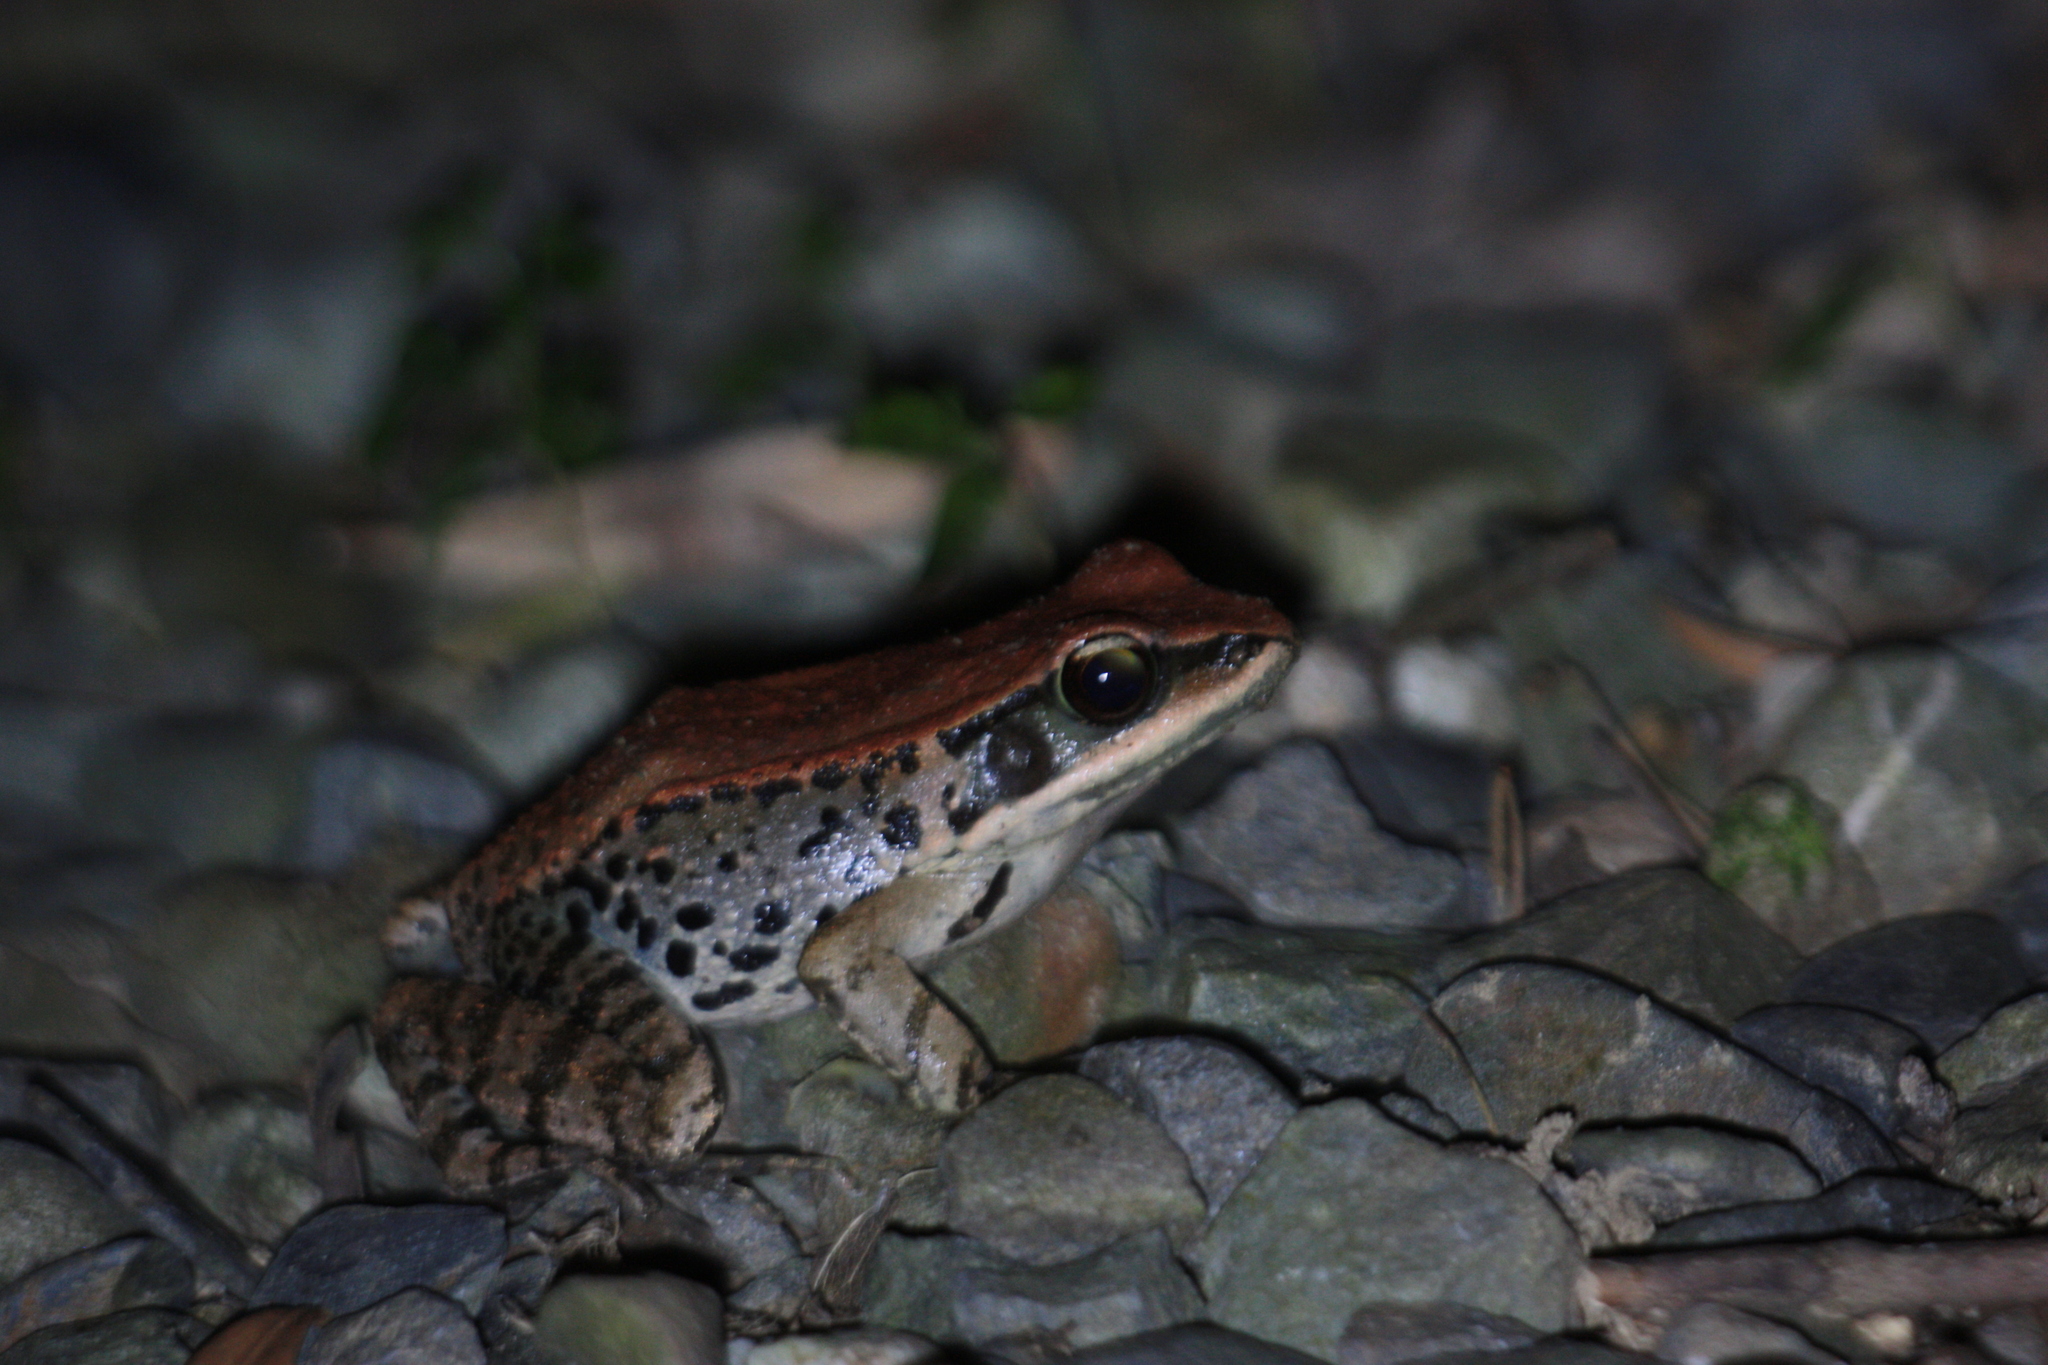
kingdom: Animalia
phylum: Chordata
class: Amphibia
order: Anura
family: Ranidae
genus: Hylarana
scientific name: Hylarana latouchii
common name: Broad-folded frog
